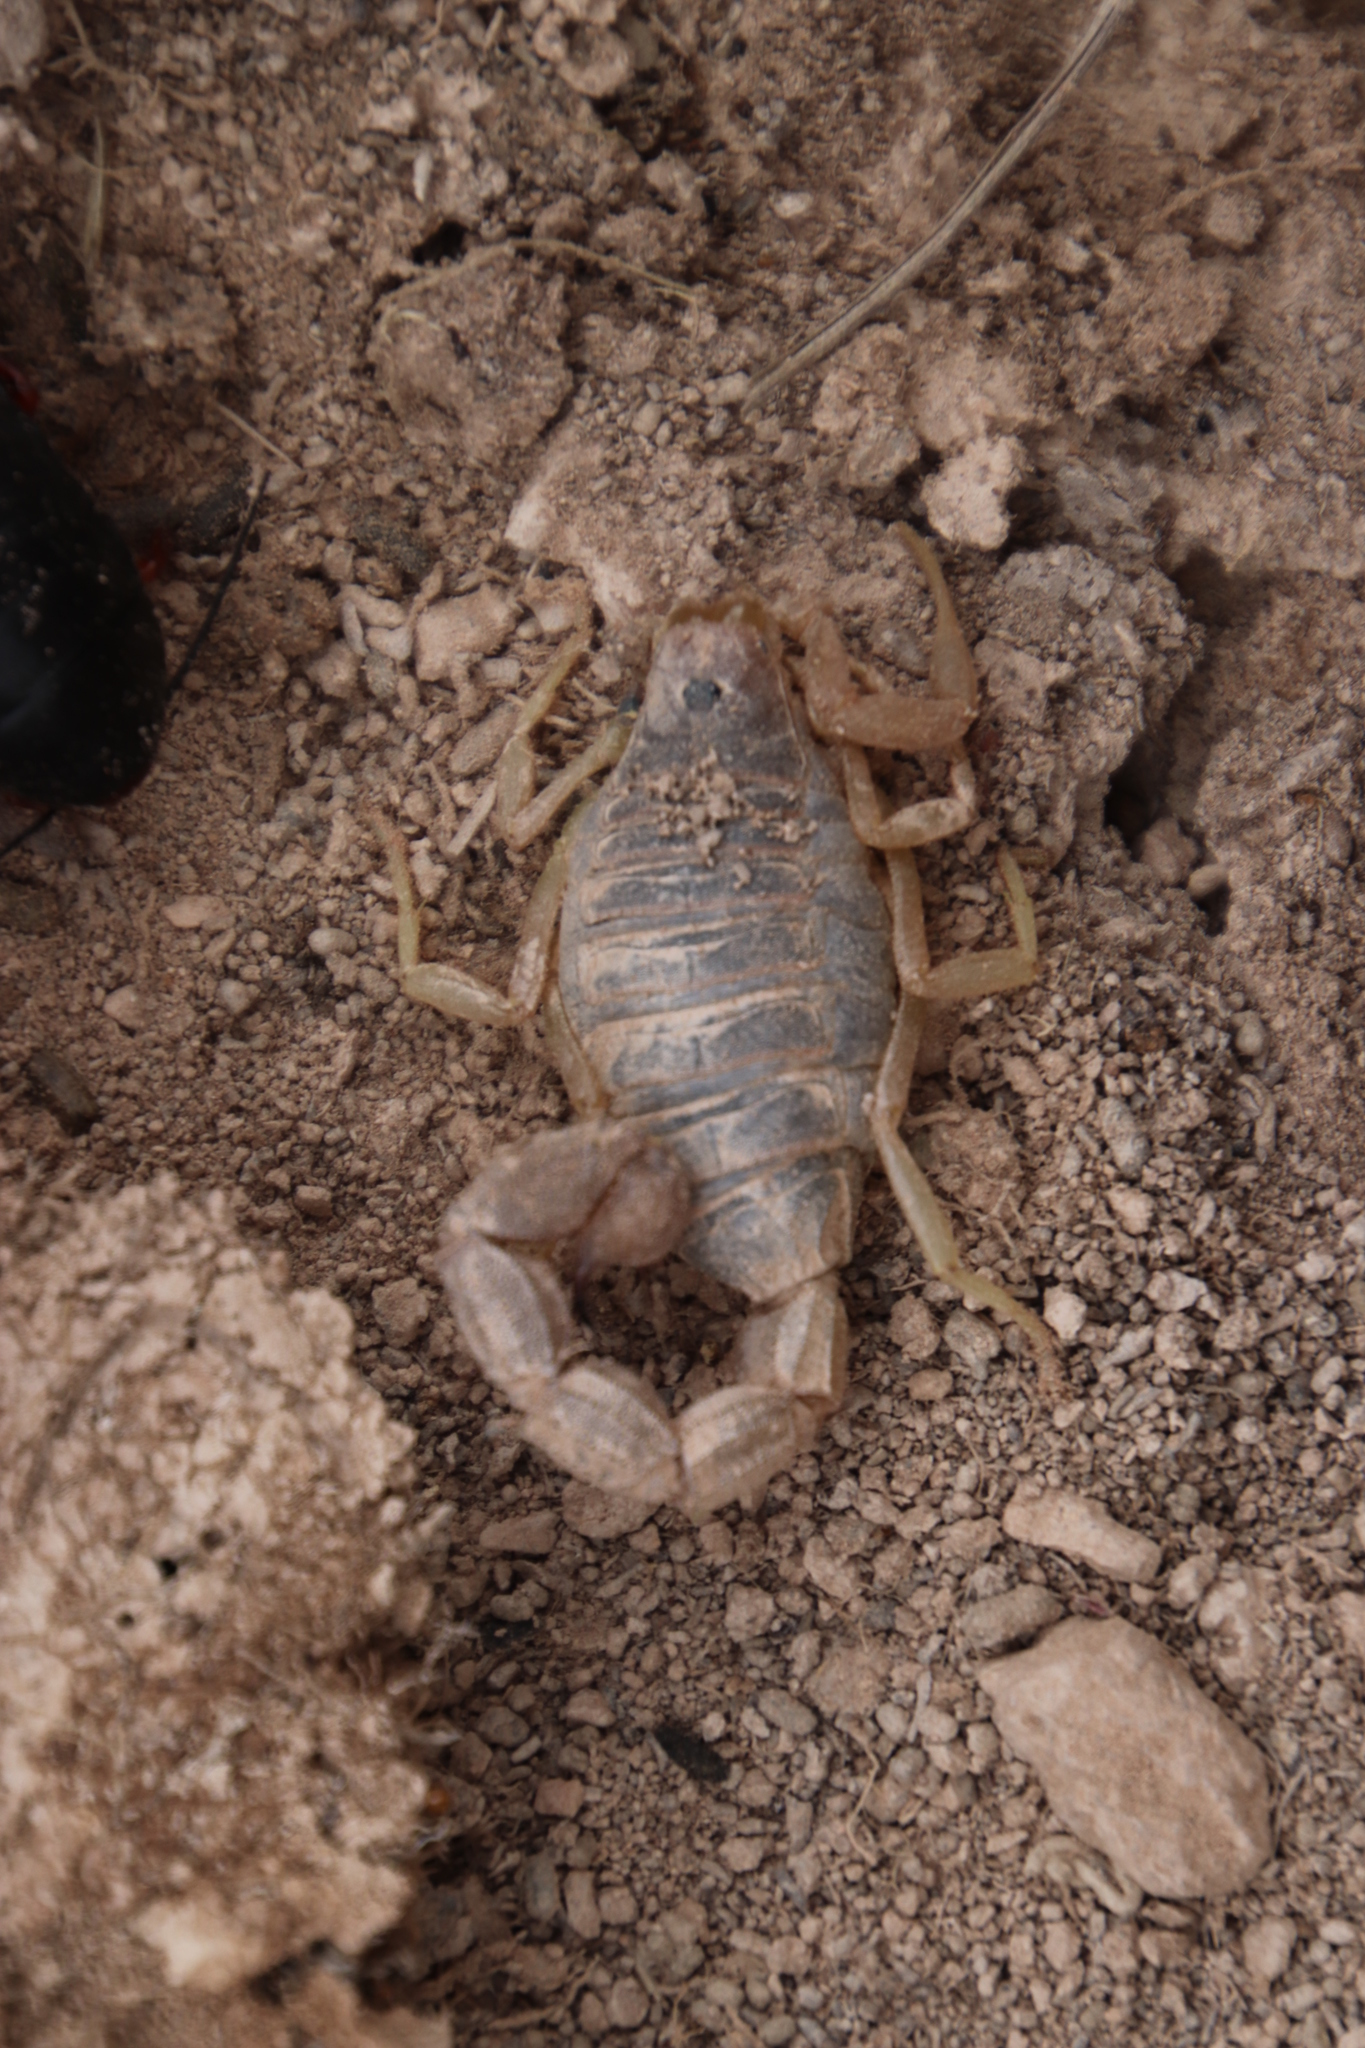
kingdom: Animalia
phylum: Arthropoda
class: Arachnida
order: Scorpiones
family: Buthidae
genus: Parabuthus
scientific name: Parabuthus planicauda
